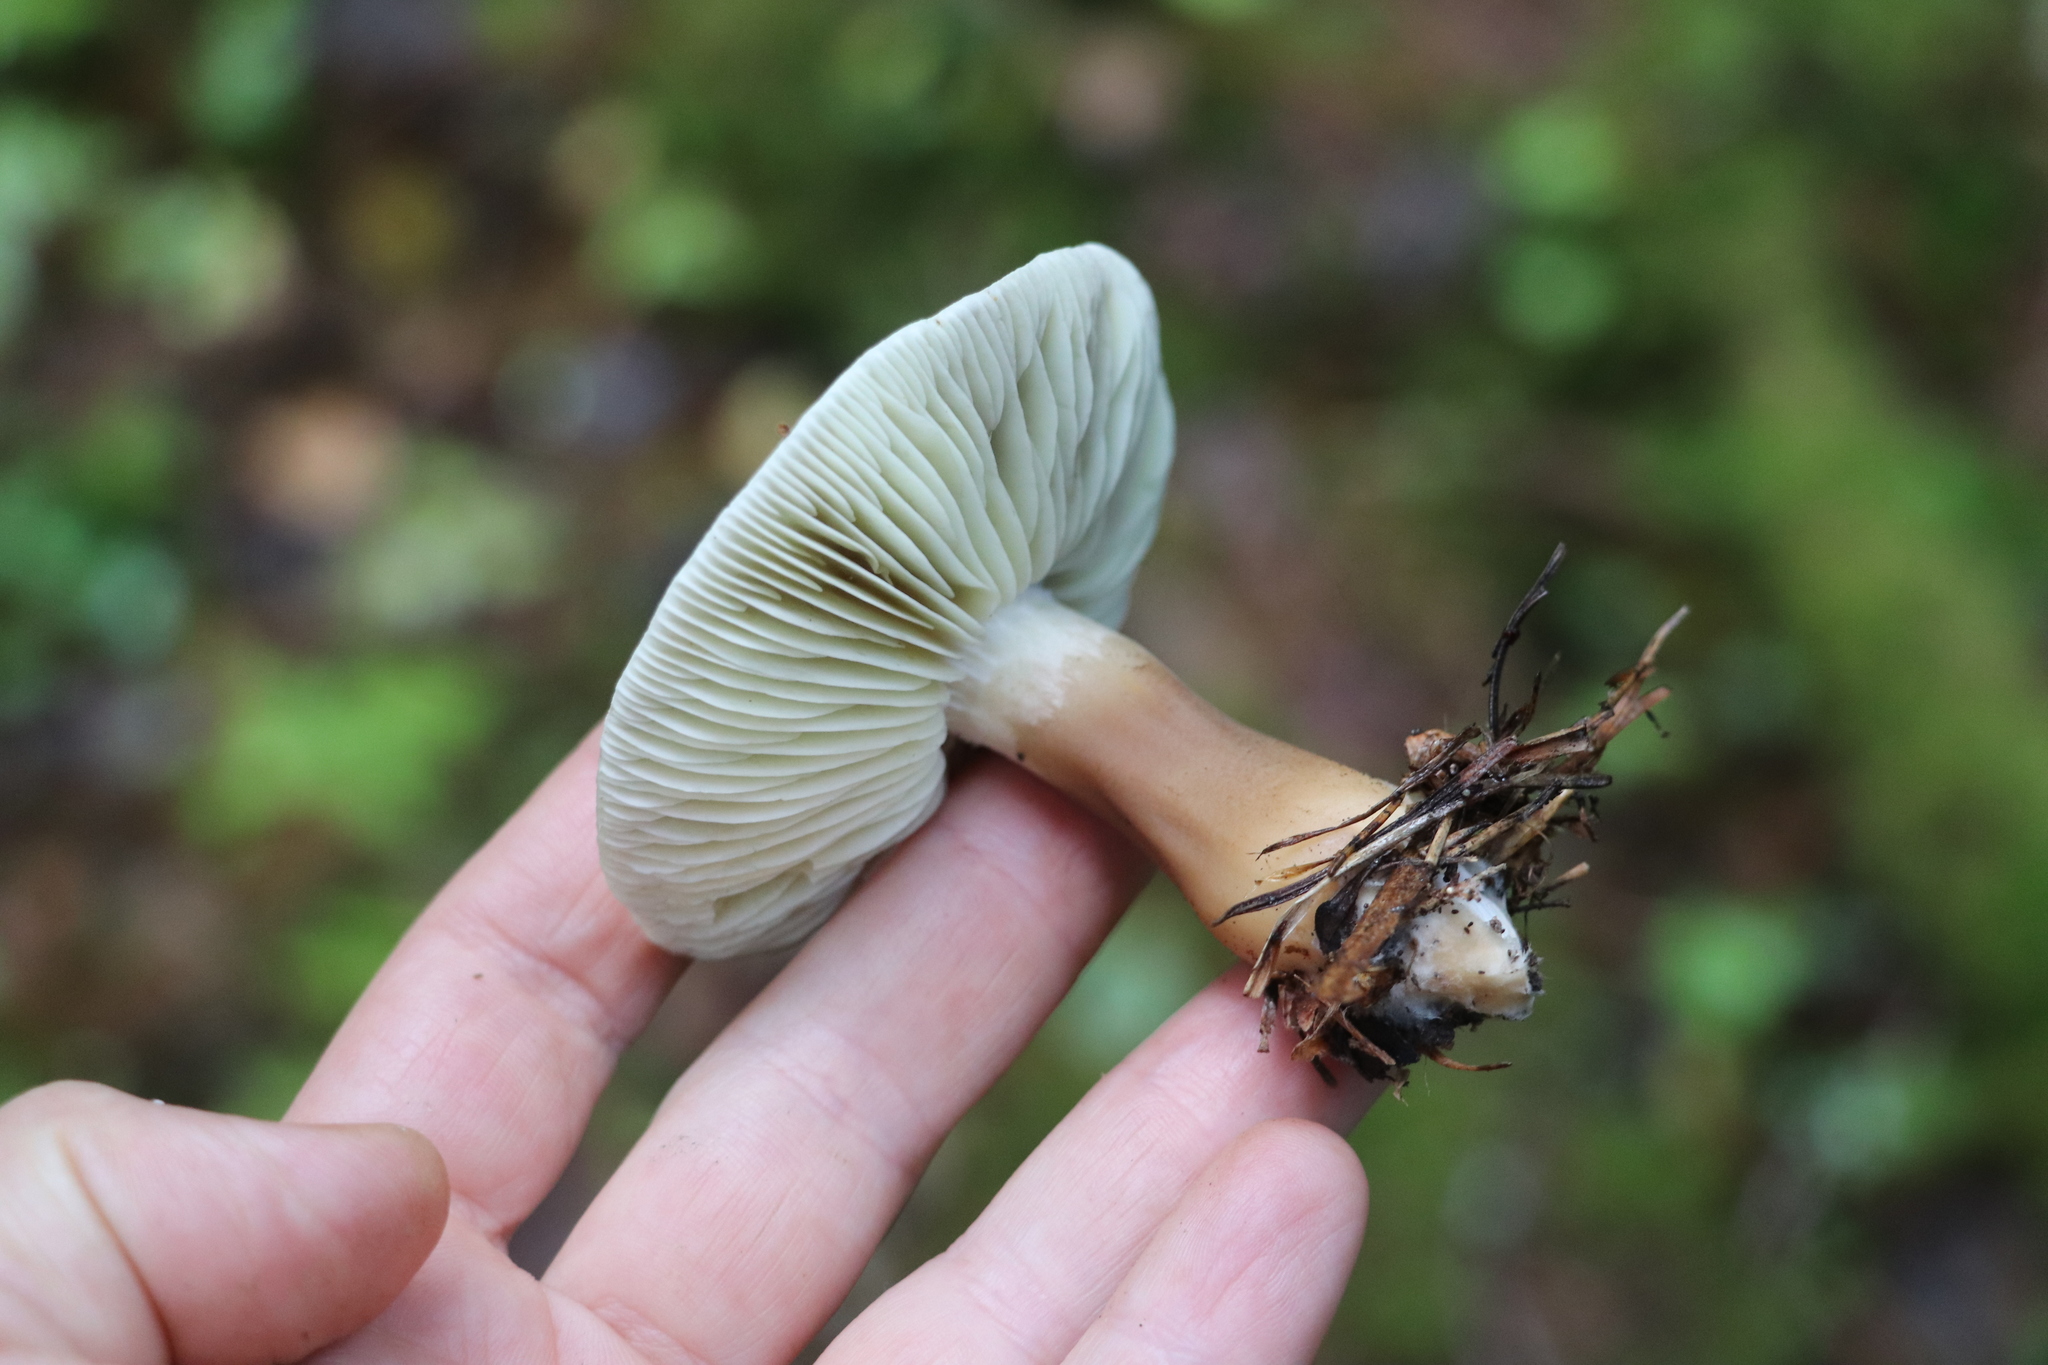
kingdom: Fungi
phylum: Basidiomycota
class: Agaricomycetes
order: Agaricales
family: Tricholomataceae
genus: Tricholoma
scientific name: Tricholoma rapipes
